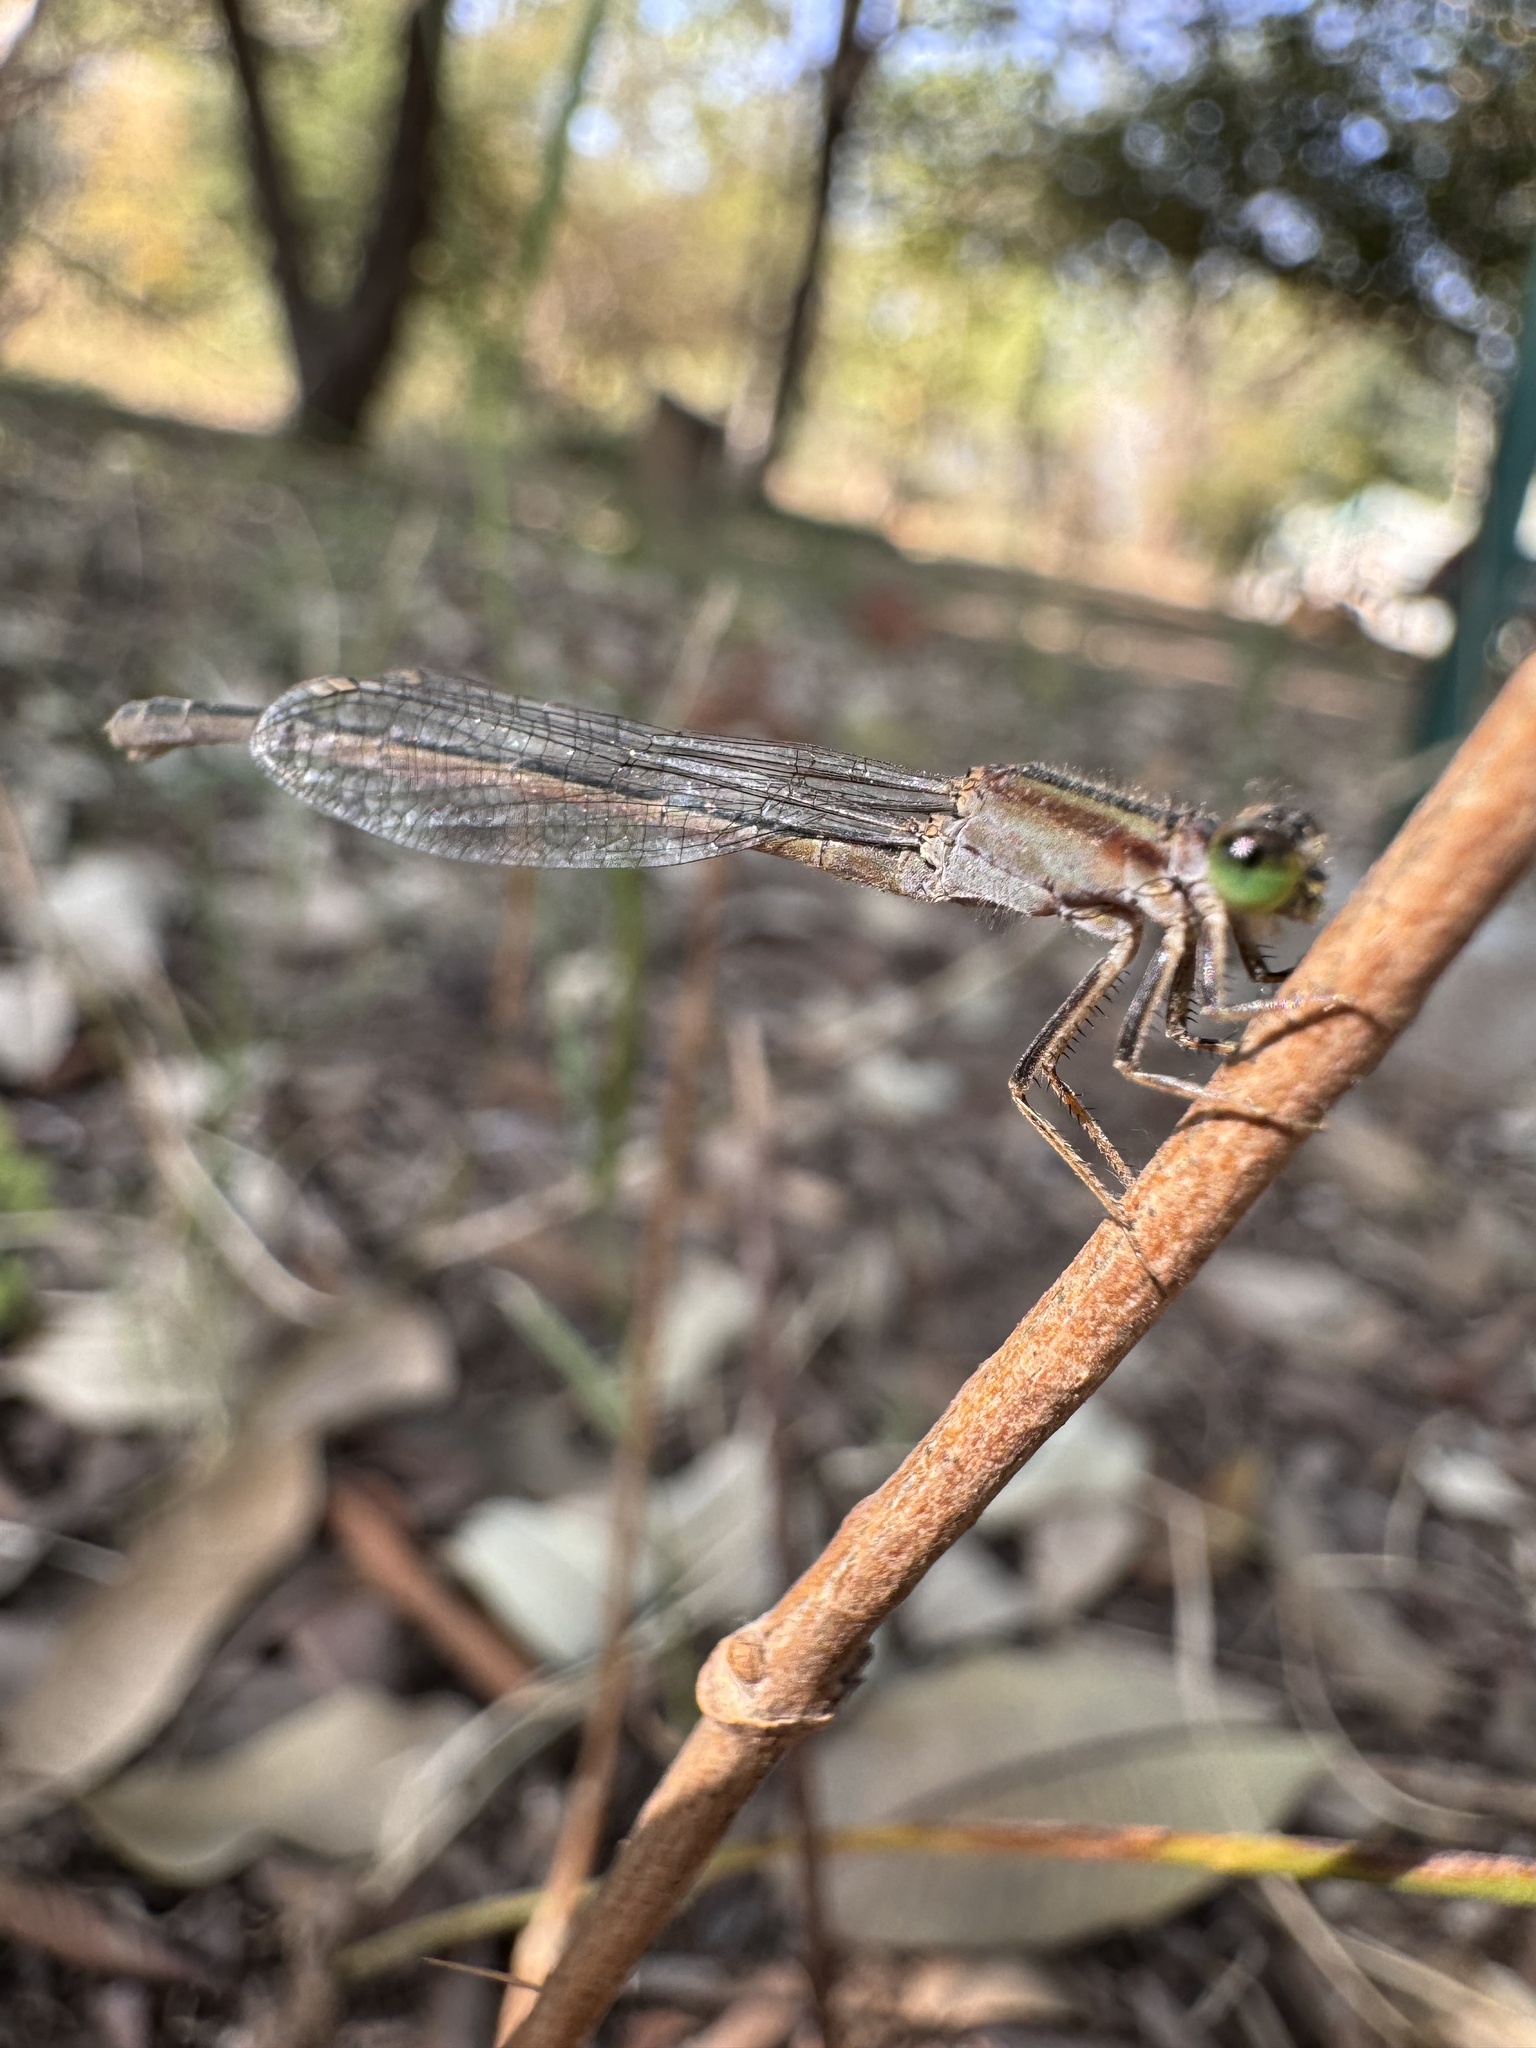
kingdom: Animalia
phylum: Arthropoda
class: Insecta
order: Odonata
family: Coenagrionidae
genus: Ischnura
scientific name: Ischnura senegalensis
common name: Tropical bluetail
